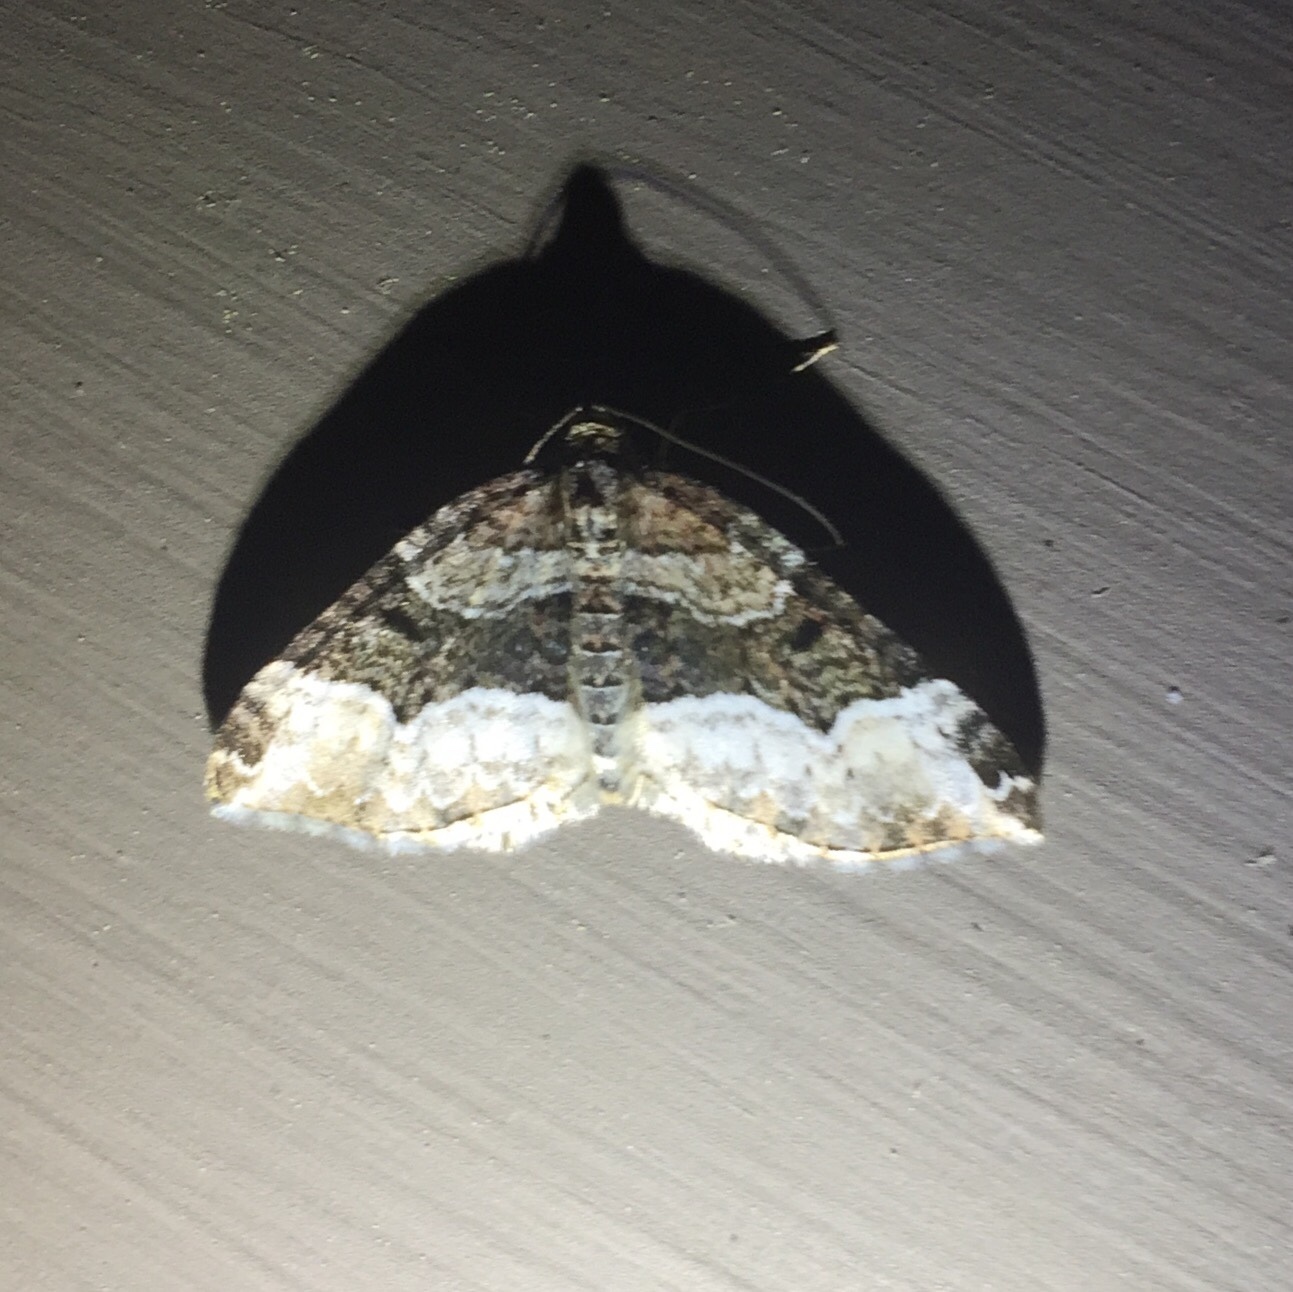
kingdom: Animalia
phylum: Arthropoda
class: Insecta
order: Lepidoptera
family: Geometridae
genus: Euphyia
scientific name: Euphyia intermediata
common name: Sharp-angled carpet
